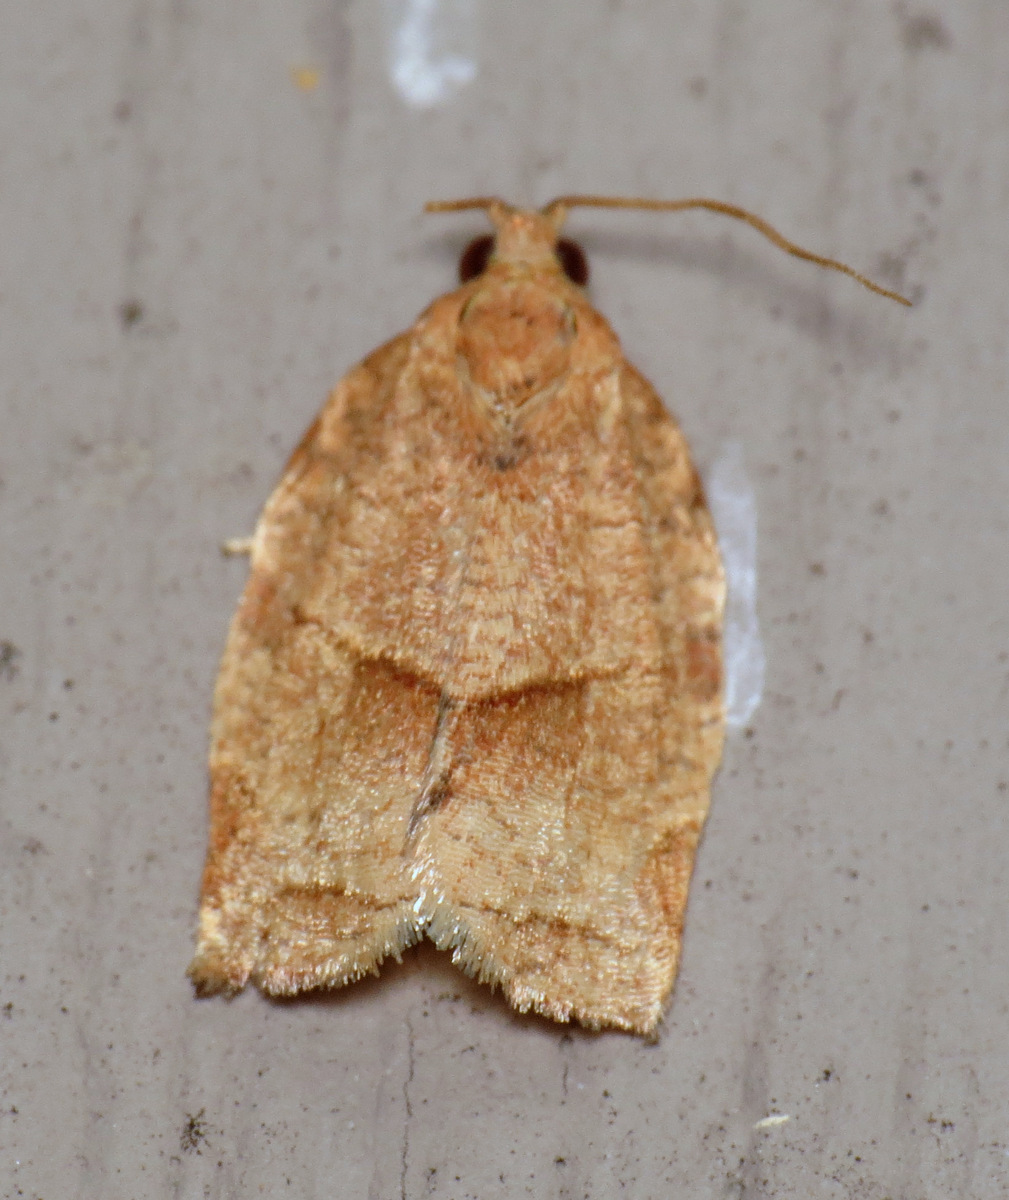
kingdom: Animalia
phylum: Arthropoda
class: Insecta
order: Lepidoptera
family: Tortricidae
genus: Choristoneura
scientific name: Choristoneura rosaceana
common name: Oblique-banded leafroller moth
